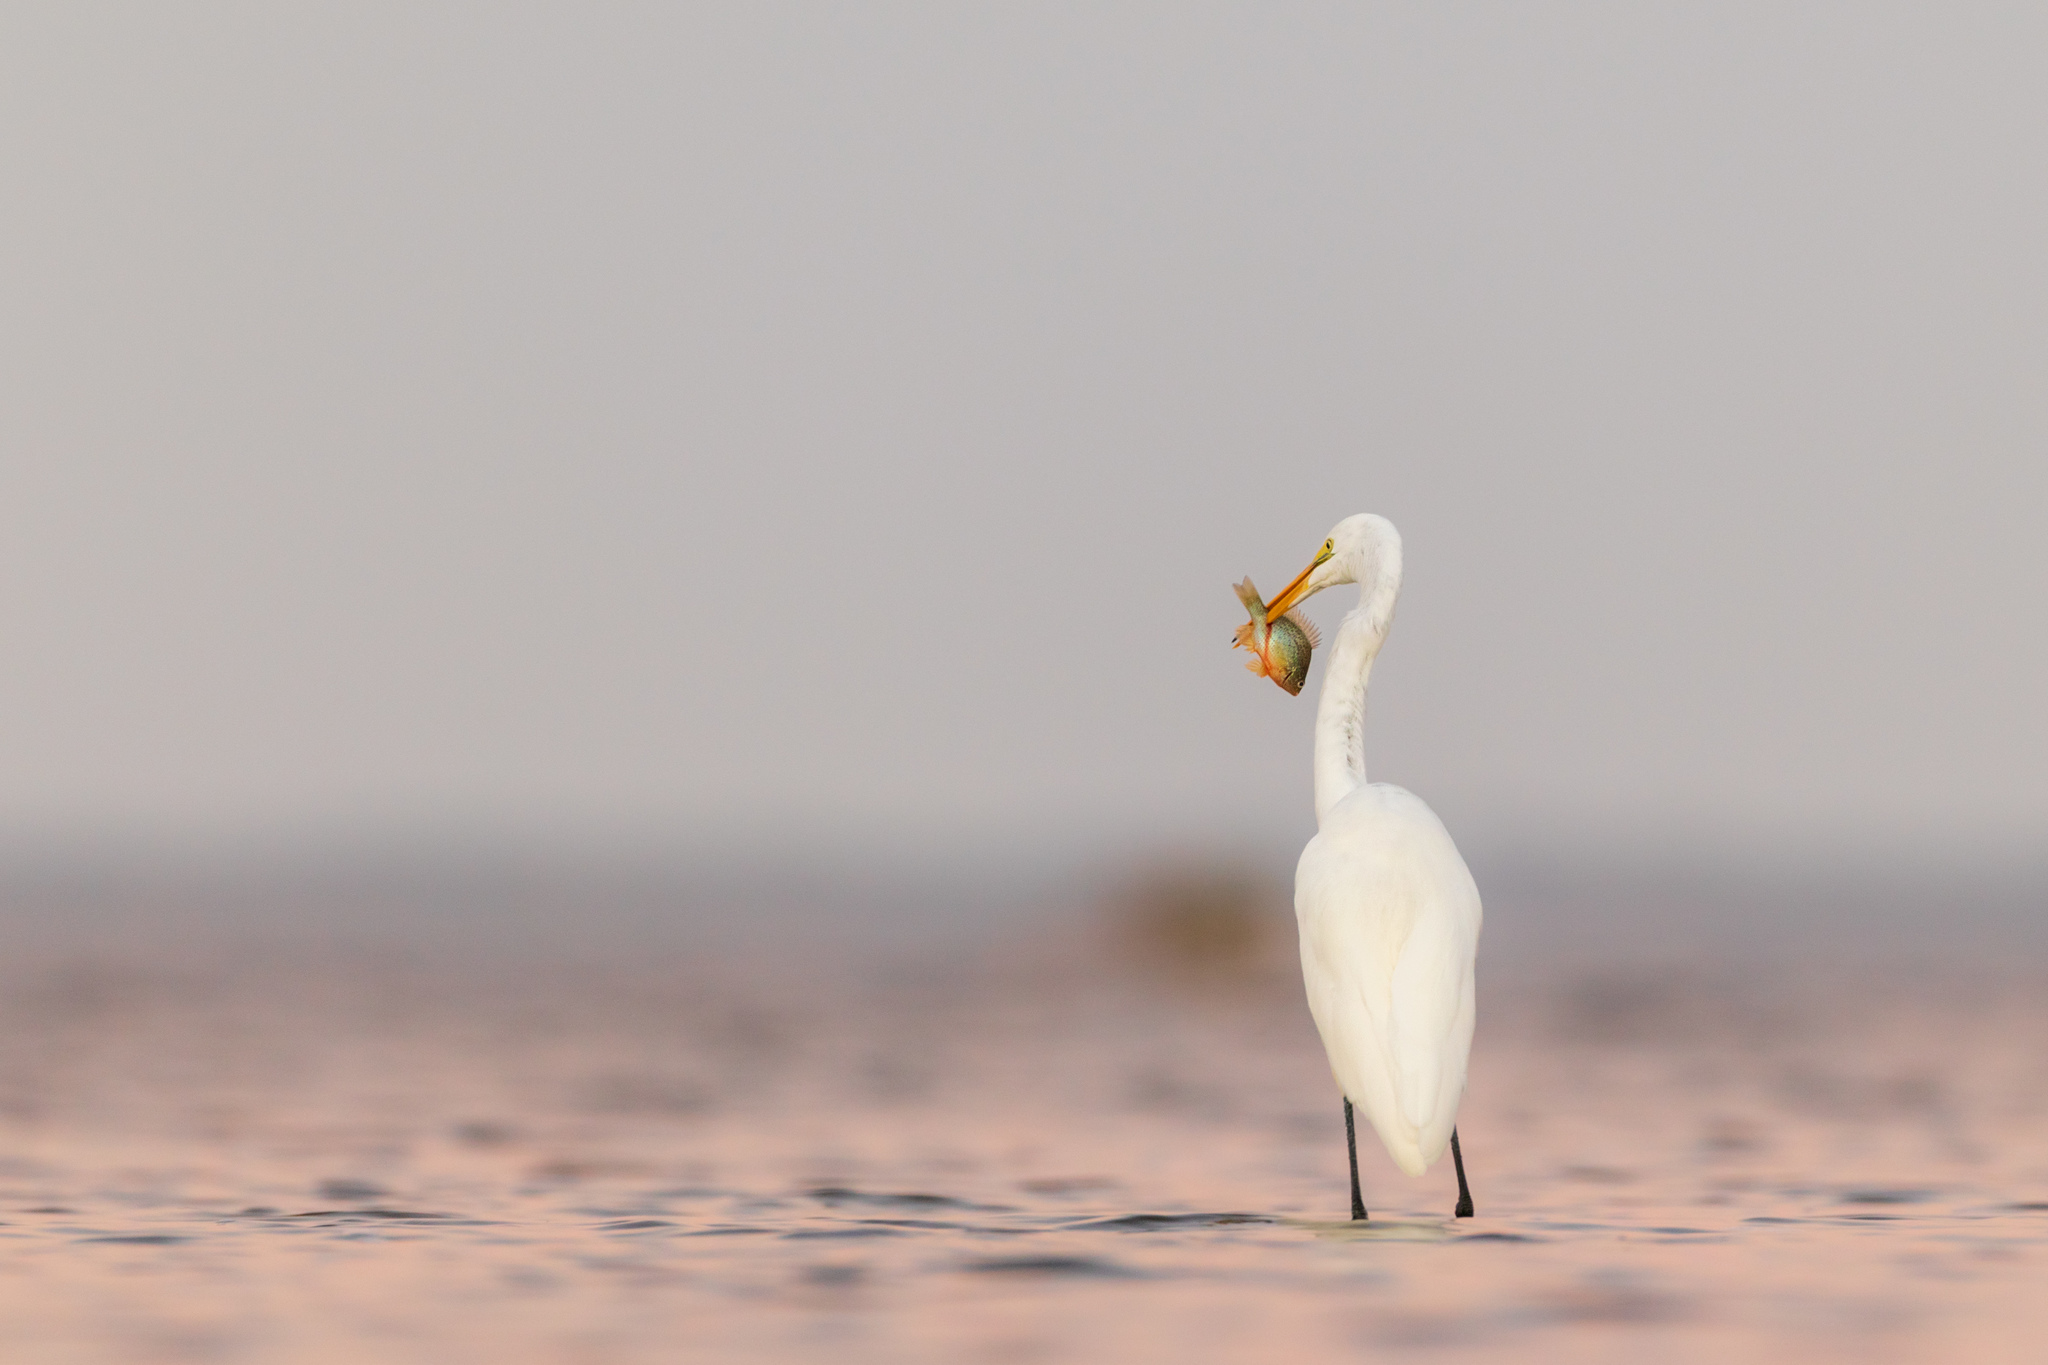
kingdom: Animalia
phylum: Chordata
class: Aves
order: Pelecaniformes
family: Ardeidae
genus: Ardea
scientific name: Ardea alba
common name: Great egret
